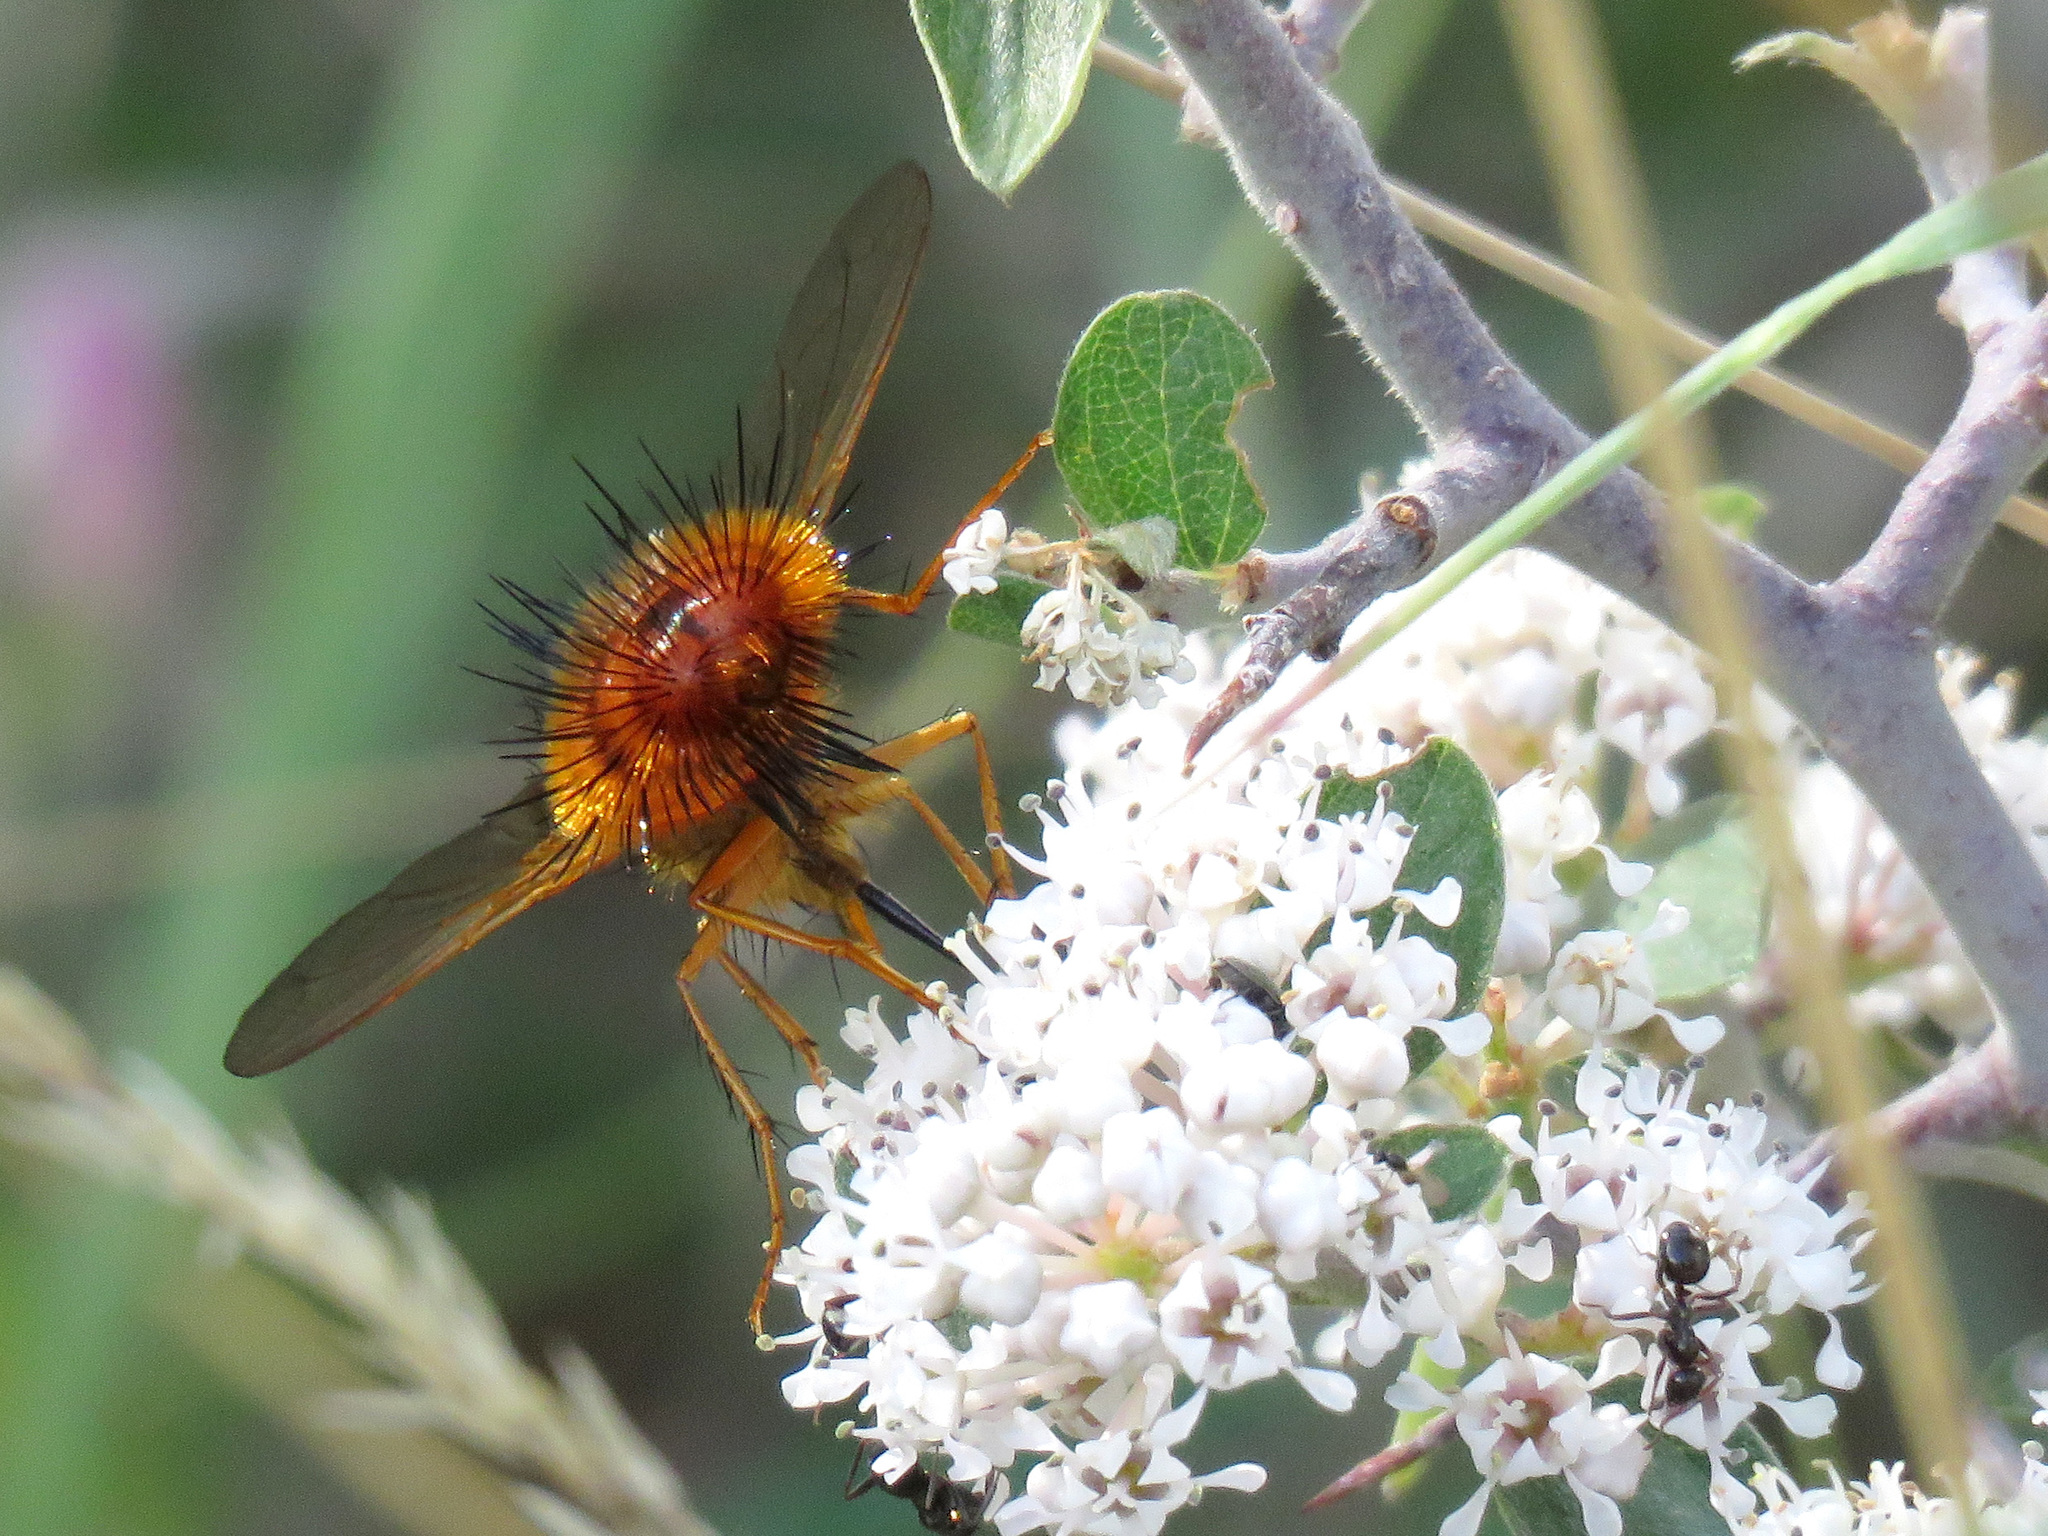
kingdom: Animalia
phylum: Arthropoda
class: Insecta
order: Diptera
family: Tachinidae
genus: Adejeania
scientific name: Adejeania vexatrix
